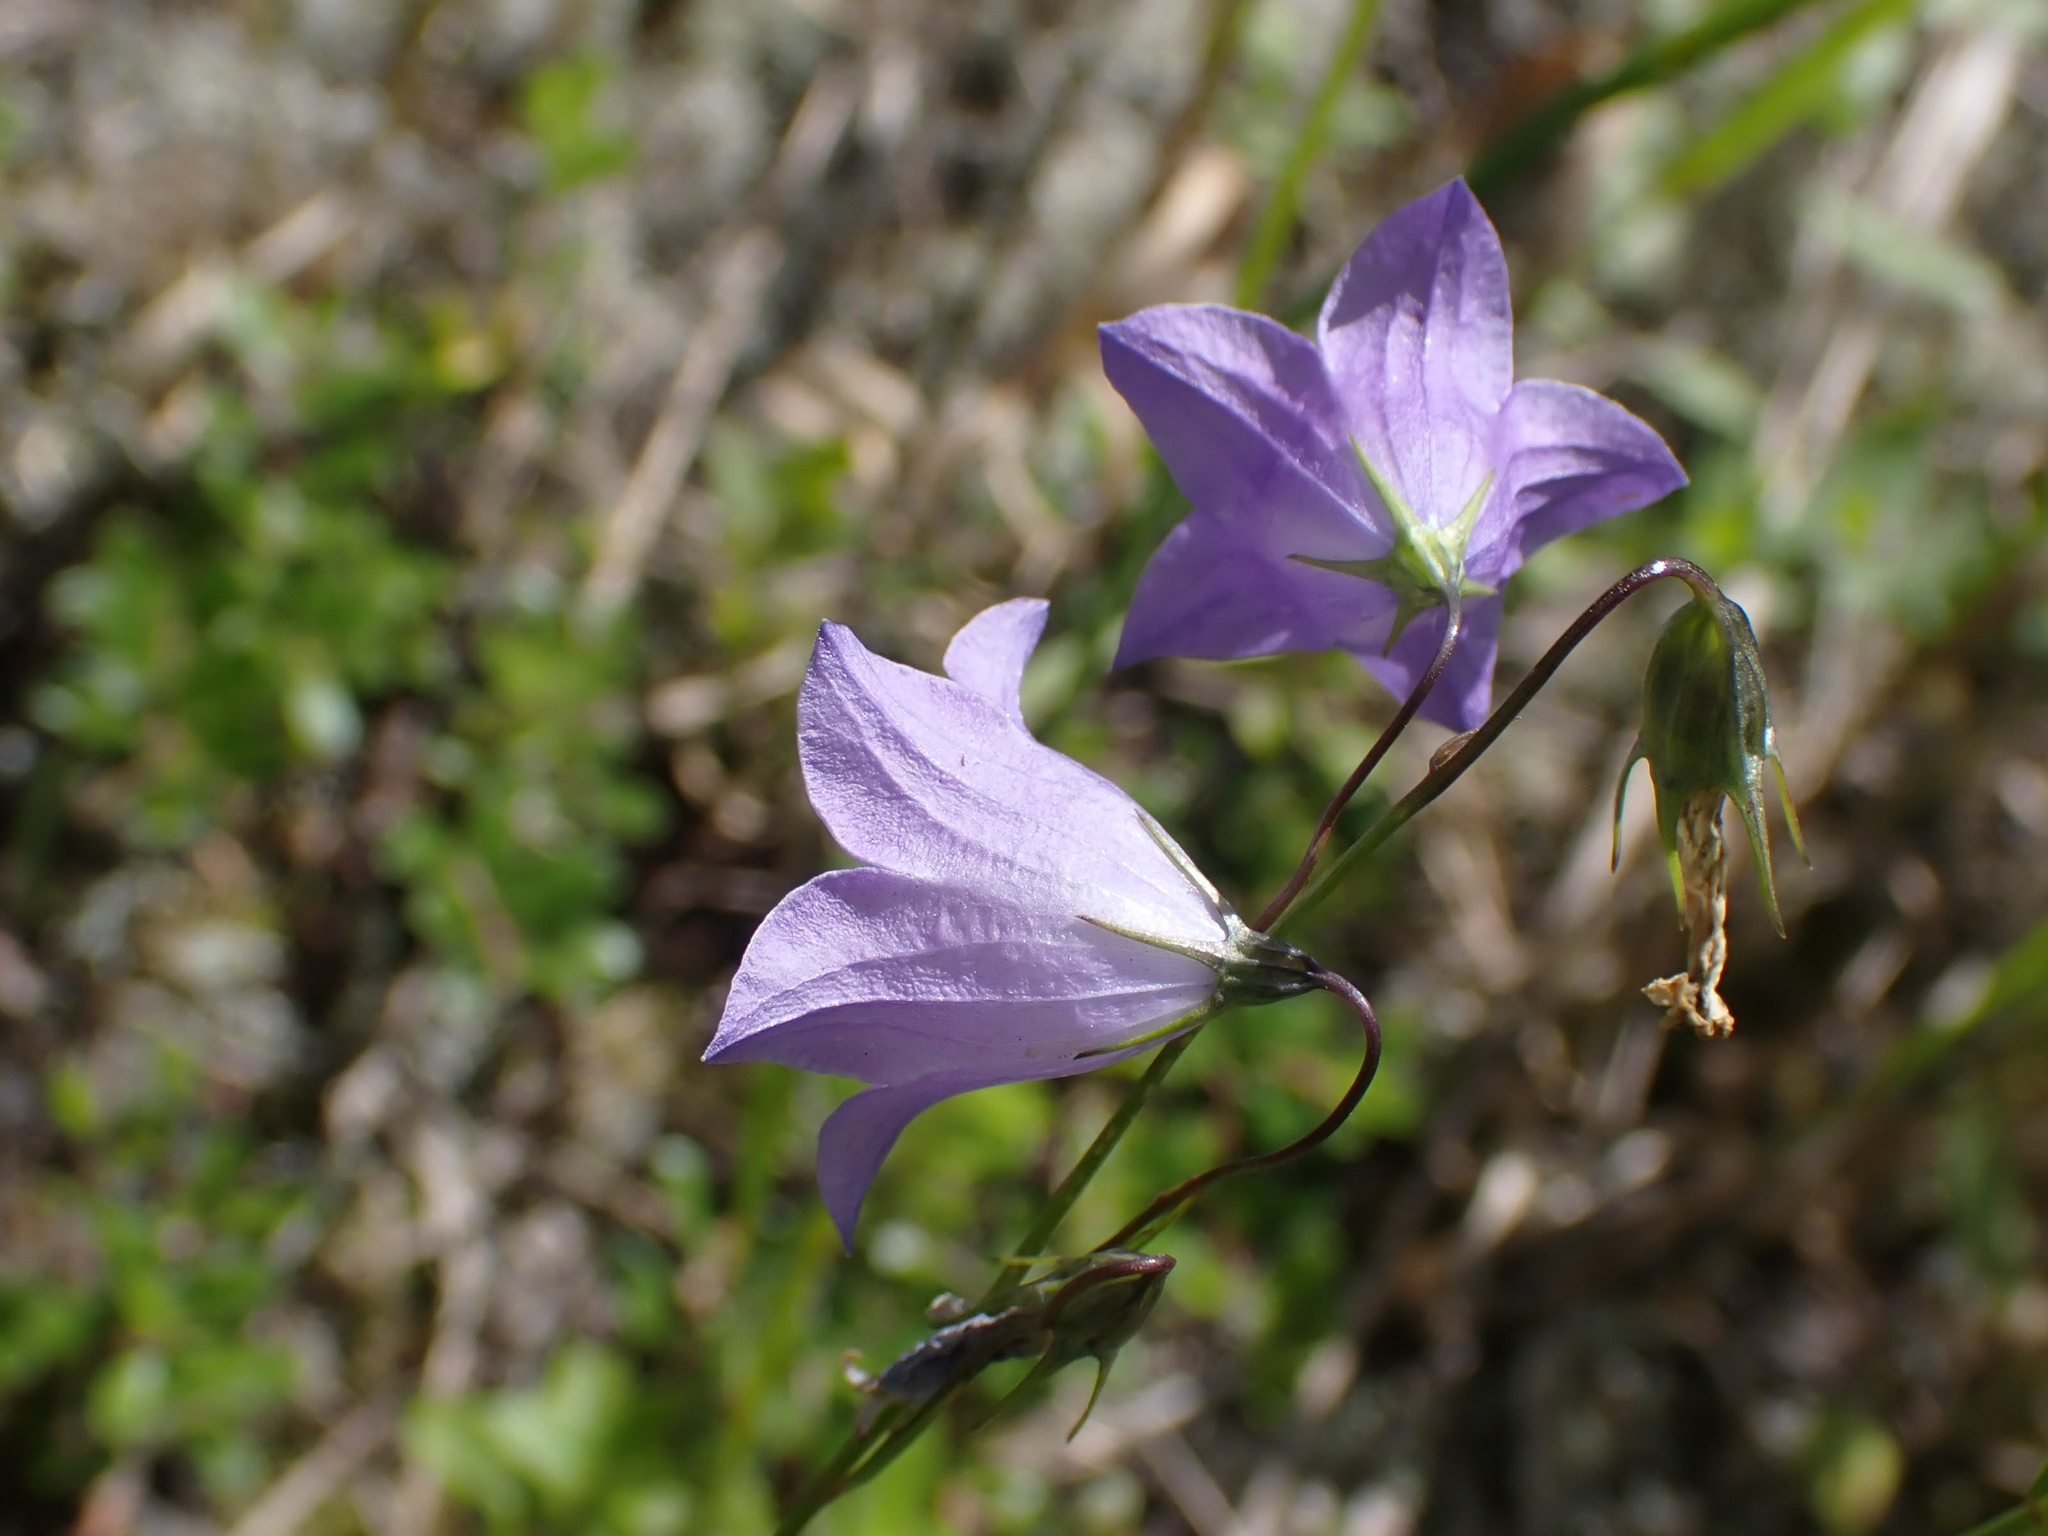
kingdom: Plantae
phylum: Tracheophyta
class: Magnoliopsida
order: Asterales
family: Campanulaceae
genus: Campanula
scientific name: Campanula petiolata
